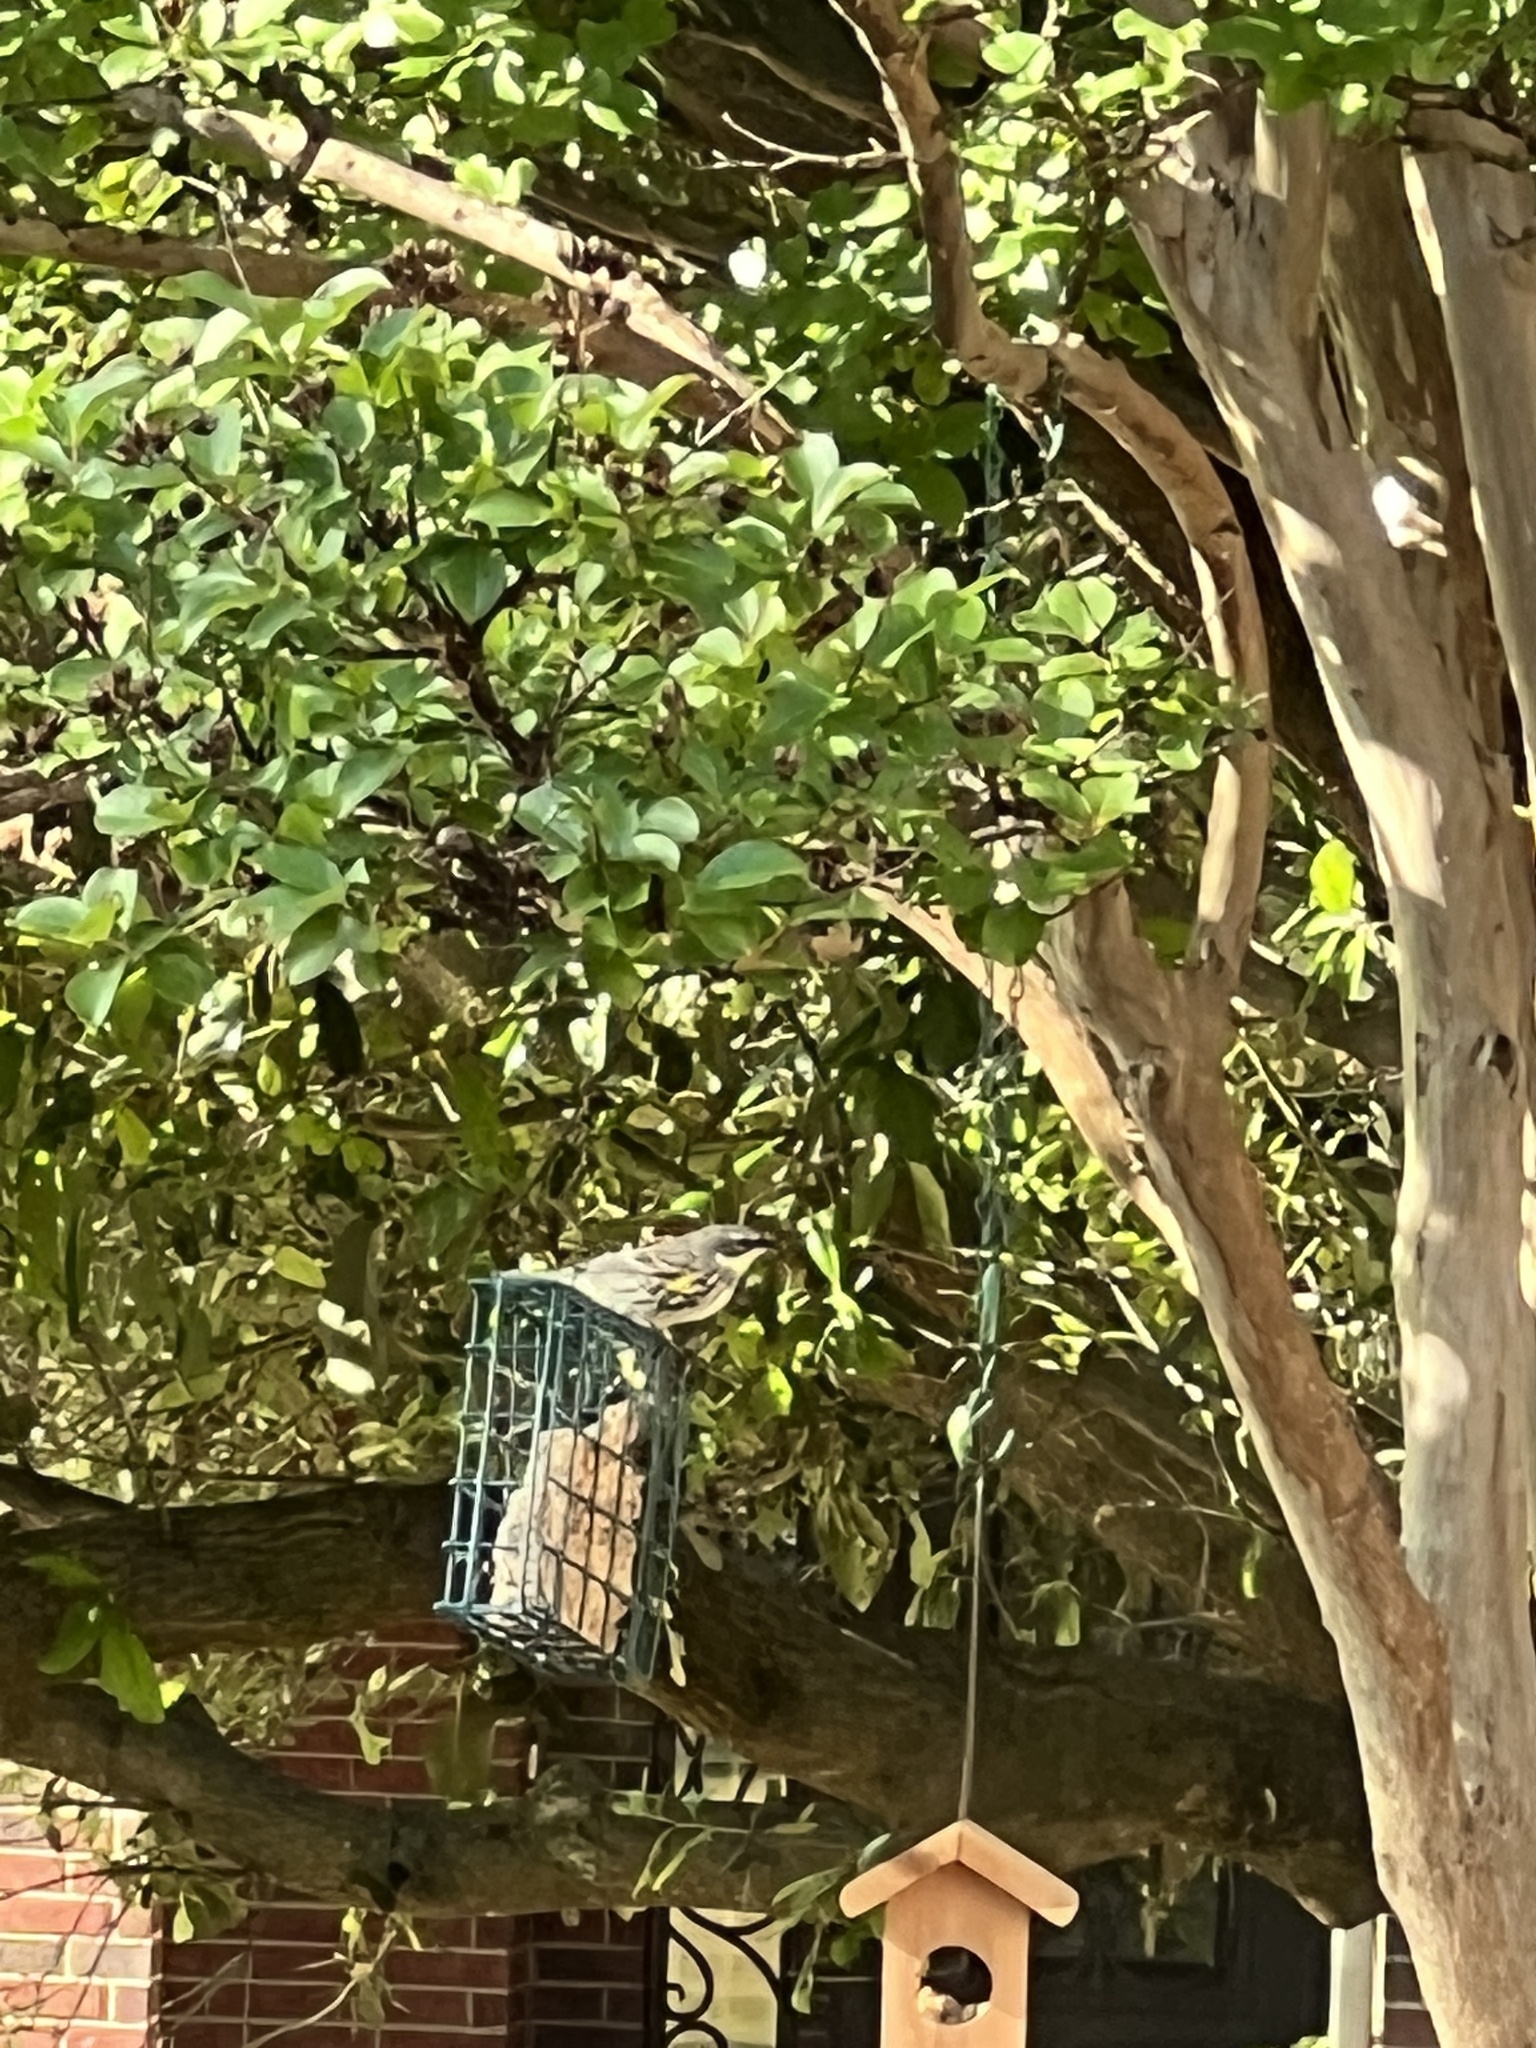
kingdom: Animalia
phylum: Chordata
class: Aves
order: Passeriformes
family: Parulidae
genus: Setophaga
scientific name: Setophaga coronata
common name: Myrtle warbler
